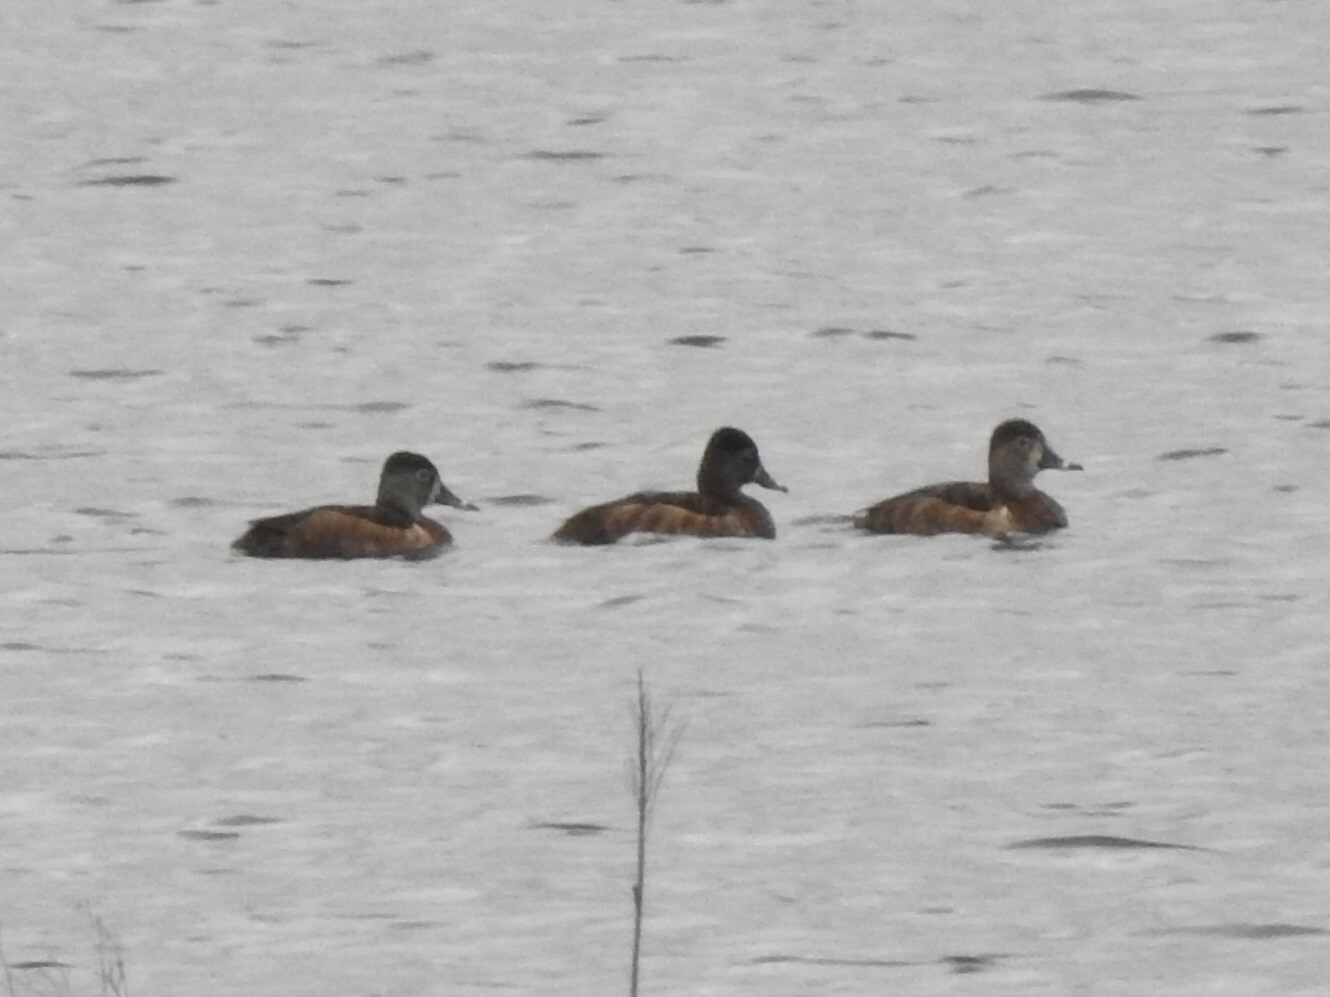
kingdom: Animalia
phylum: Chordata
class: Aves
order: Anseriformes
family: Anatidae
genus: Aythya
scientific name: Aythya collaris
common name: Ring-necked duck
